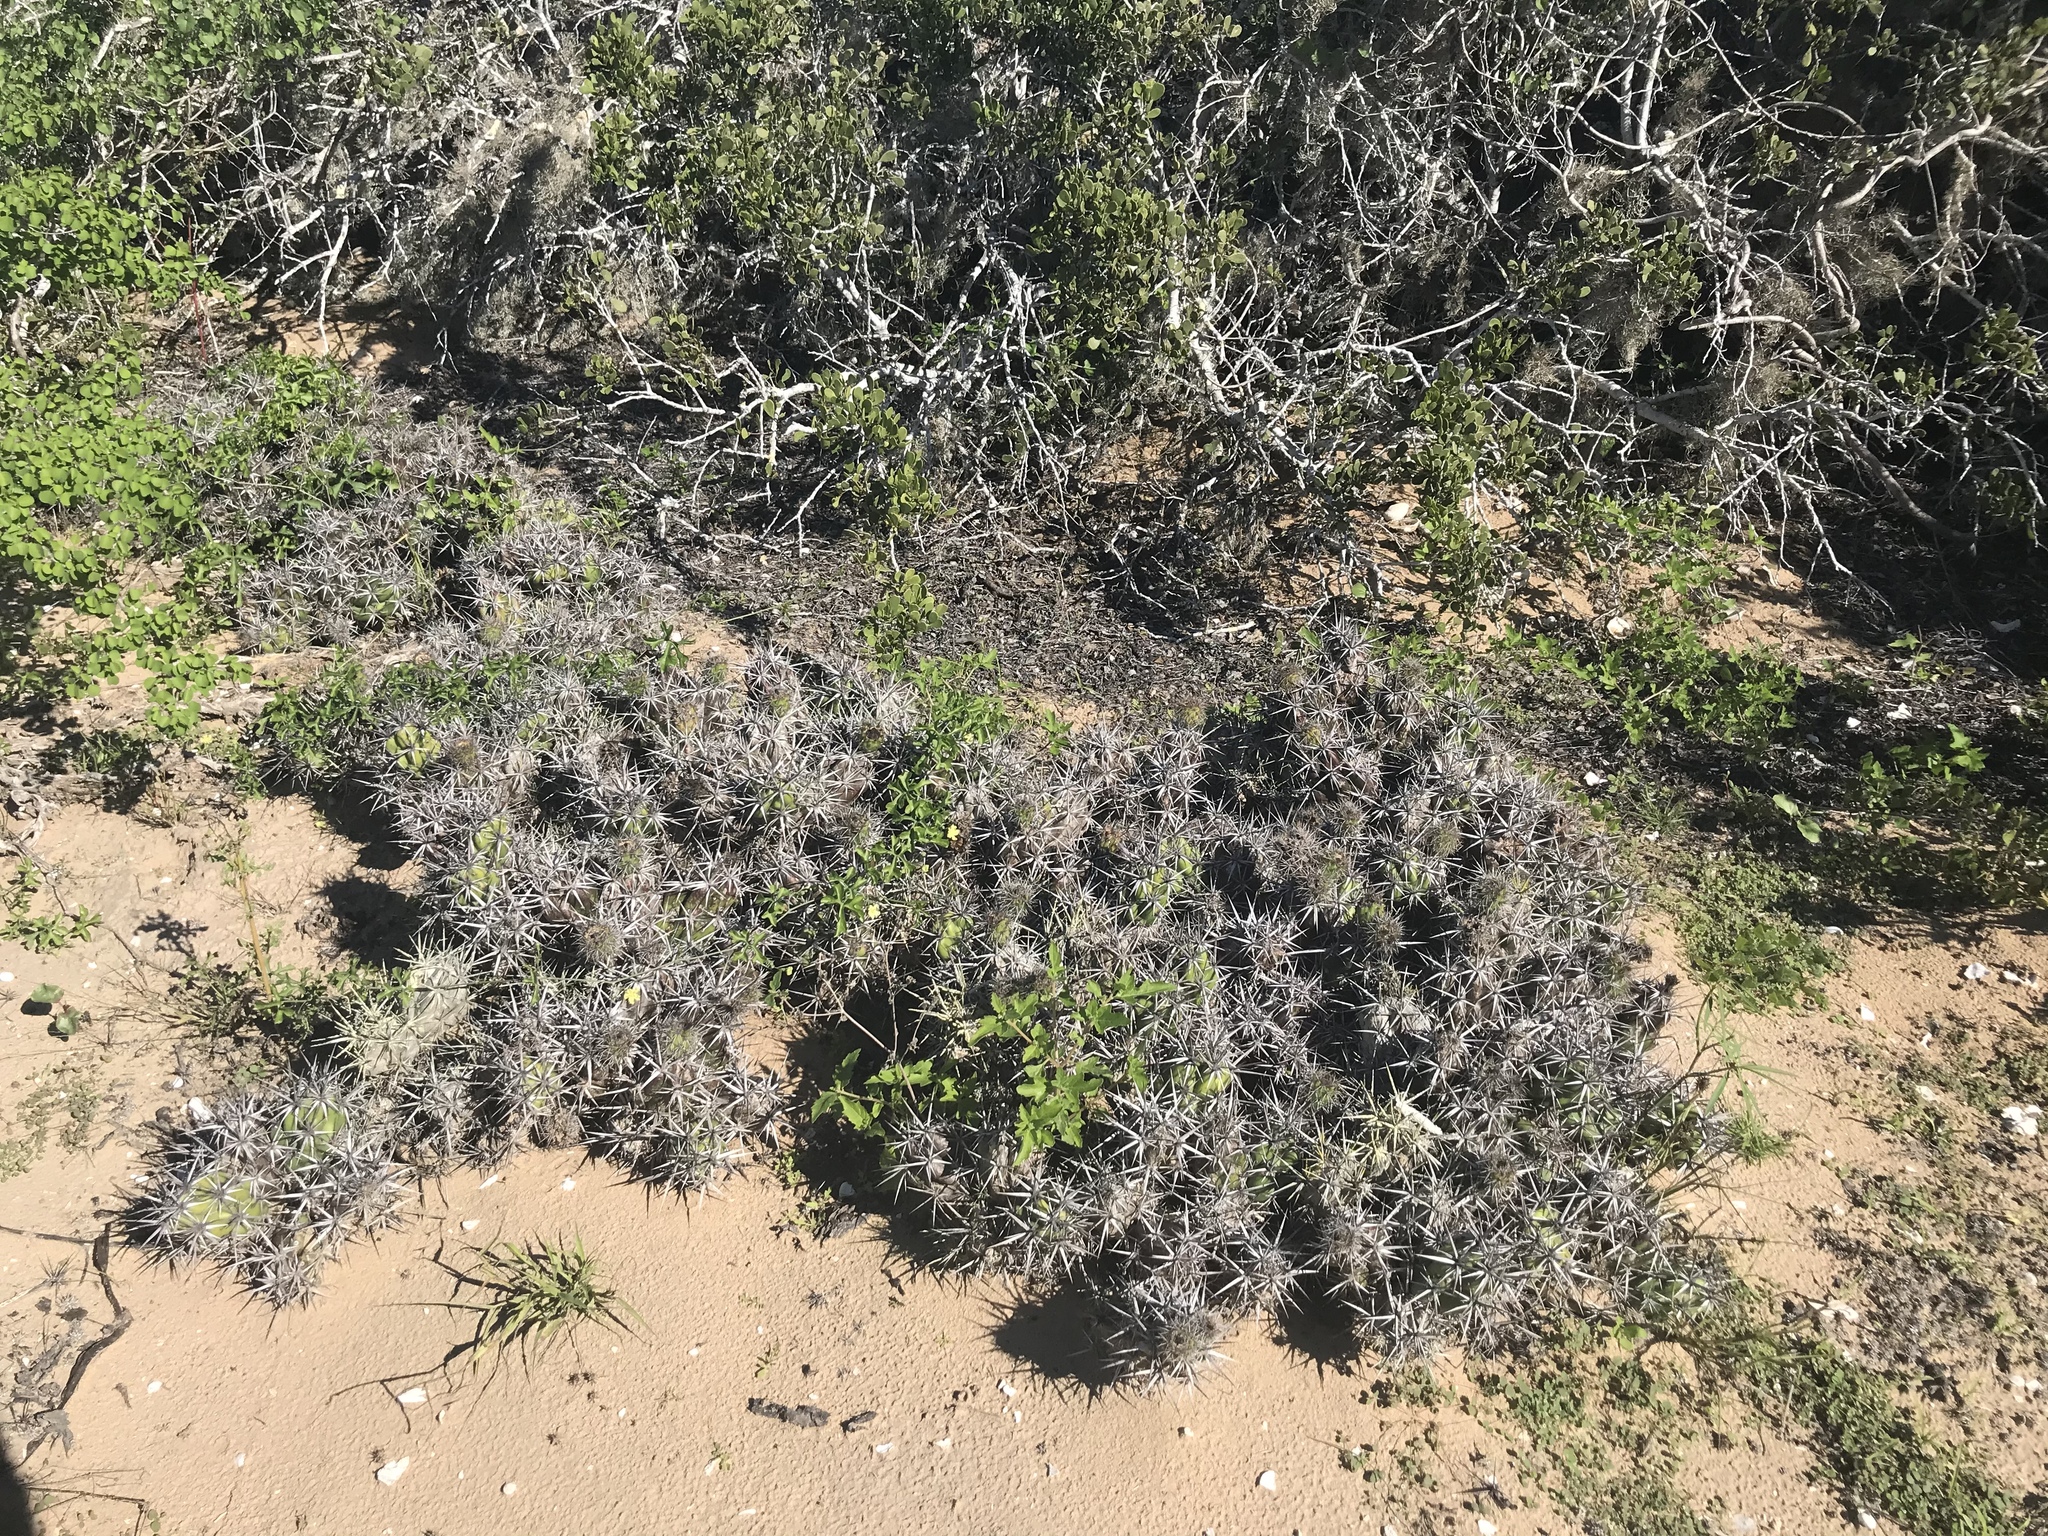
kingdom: Plantae
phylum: Tracheophyta
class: Magnoliopsida
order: Caryophyllales
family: Cactaceae
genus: Grusonia
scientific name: Grusonia invicta
